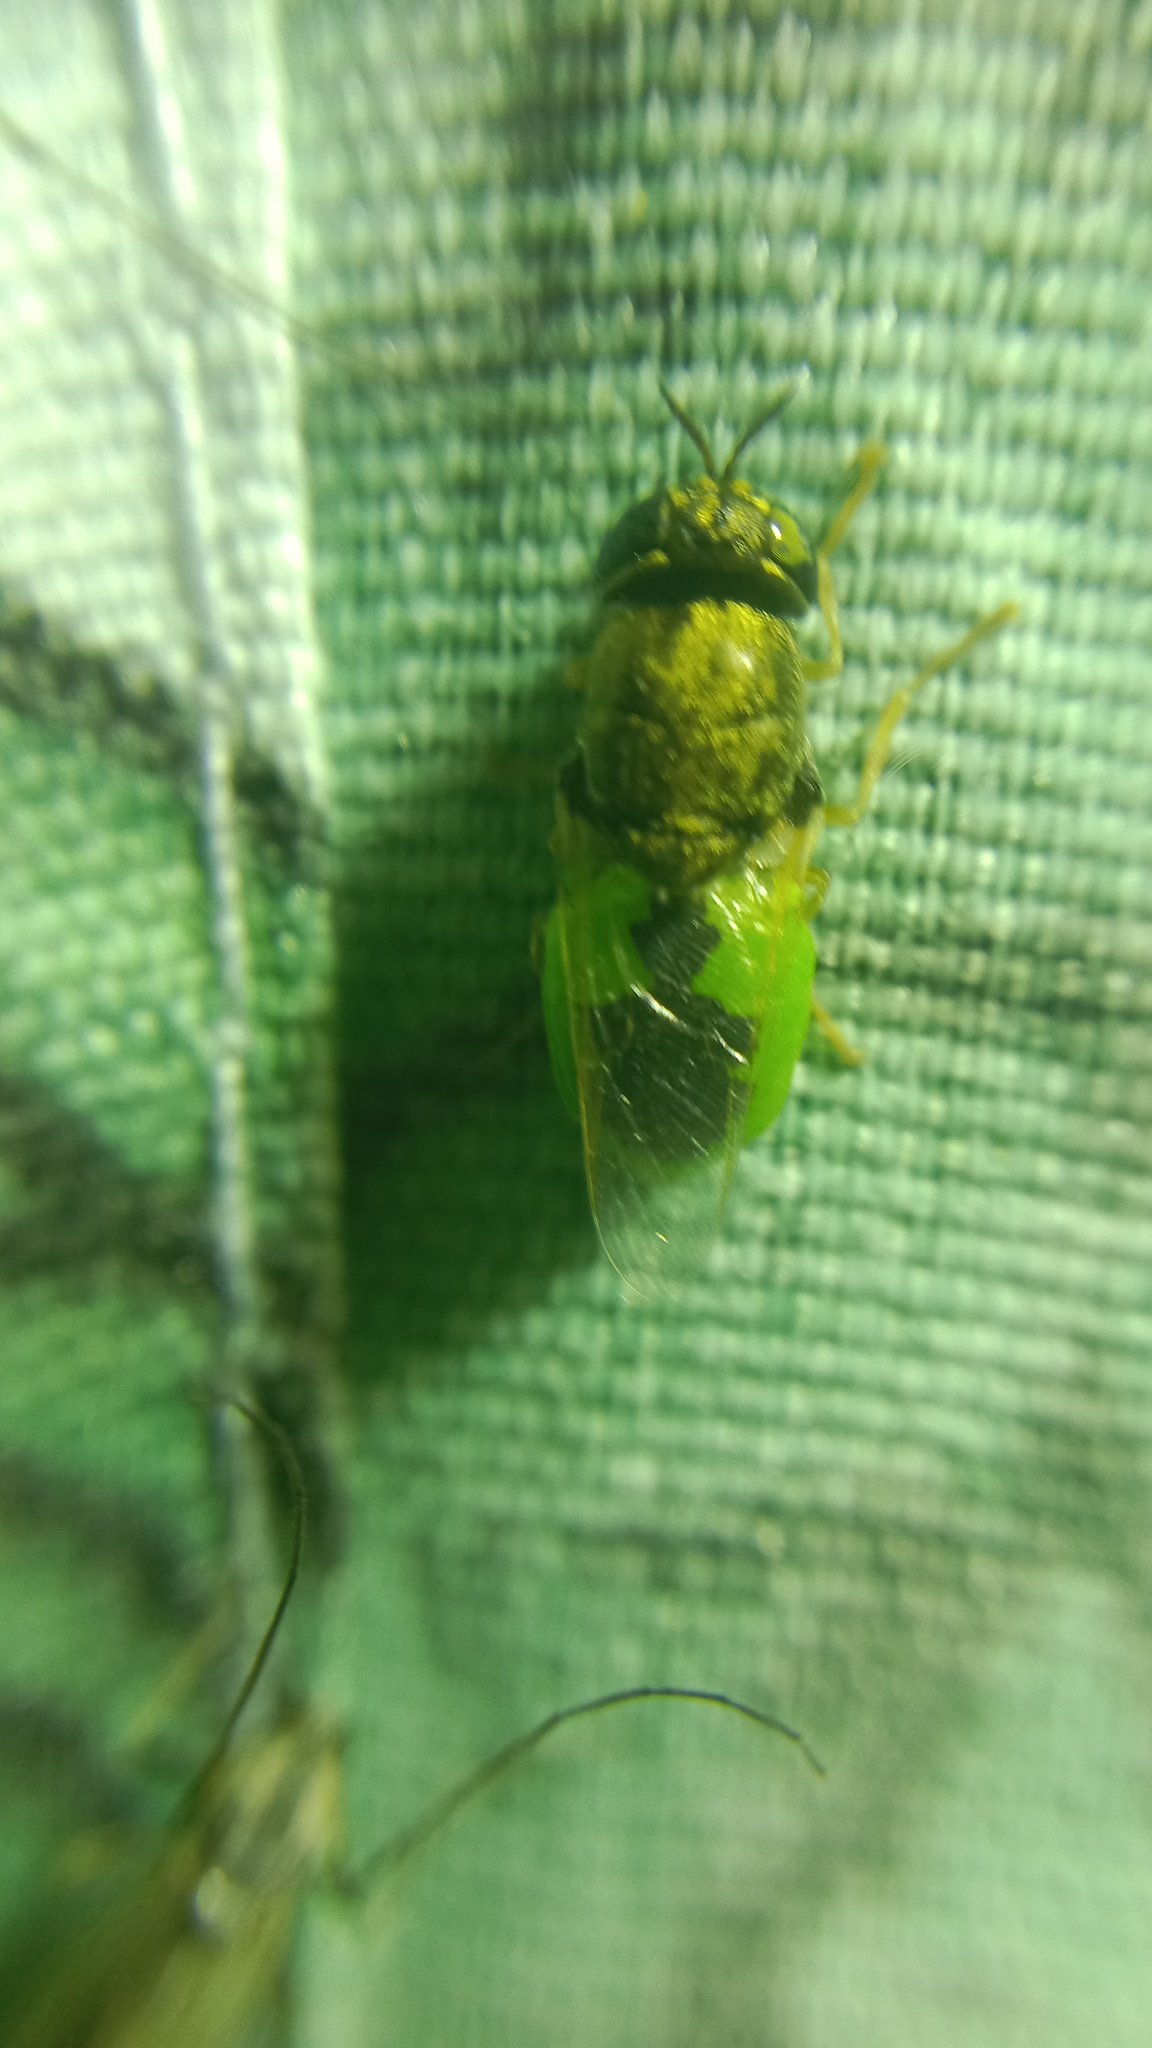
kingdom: Animalia
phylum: Arthropoda
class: Insecta
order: Diptera
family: Stratiomyidae
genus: Oplodontha
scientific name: Oplodontha viridula
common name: Common green colonel
